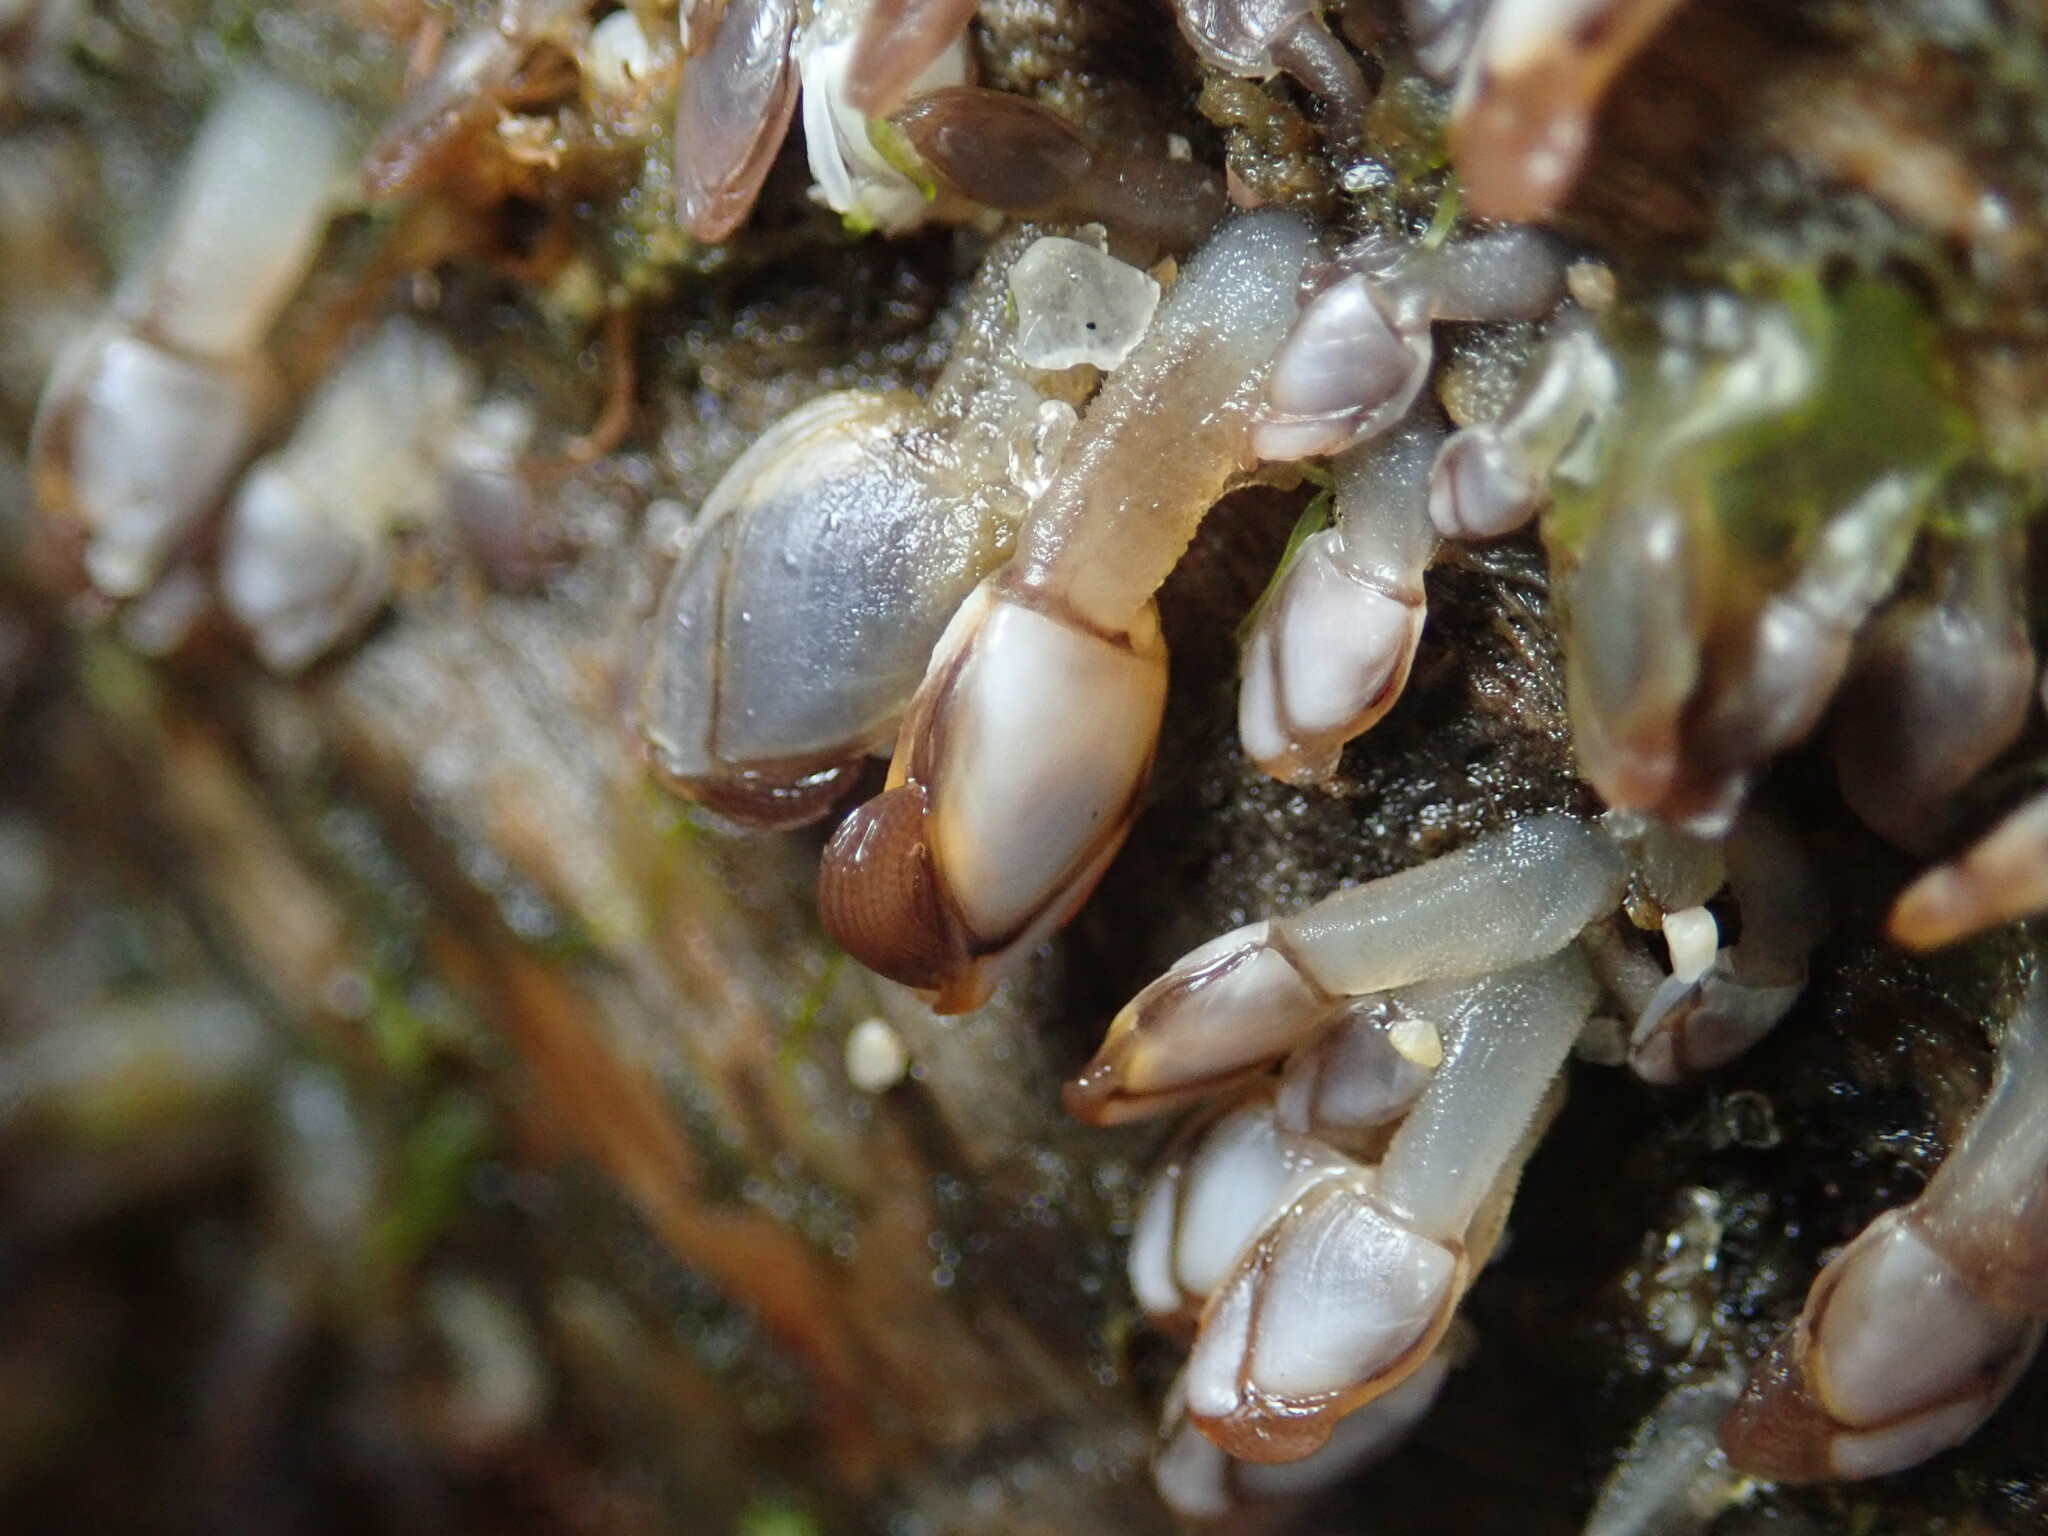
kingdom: Animalia
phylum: Arthropoda
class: Maxillopoda
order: Pedunculata
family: Lepadidae
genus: Lepas
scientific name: Lepas anatifera
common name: Common goose barnacle
